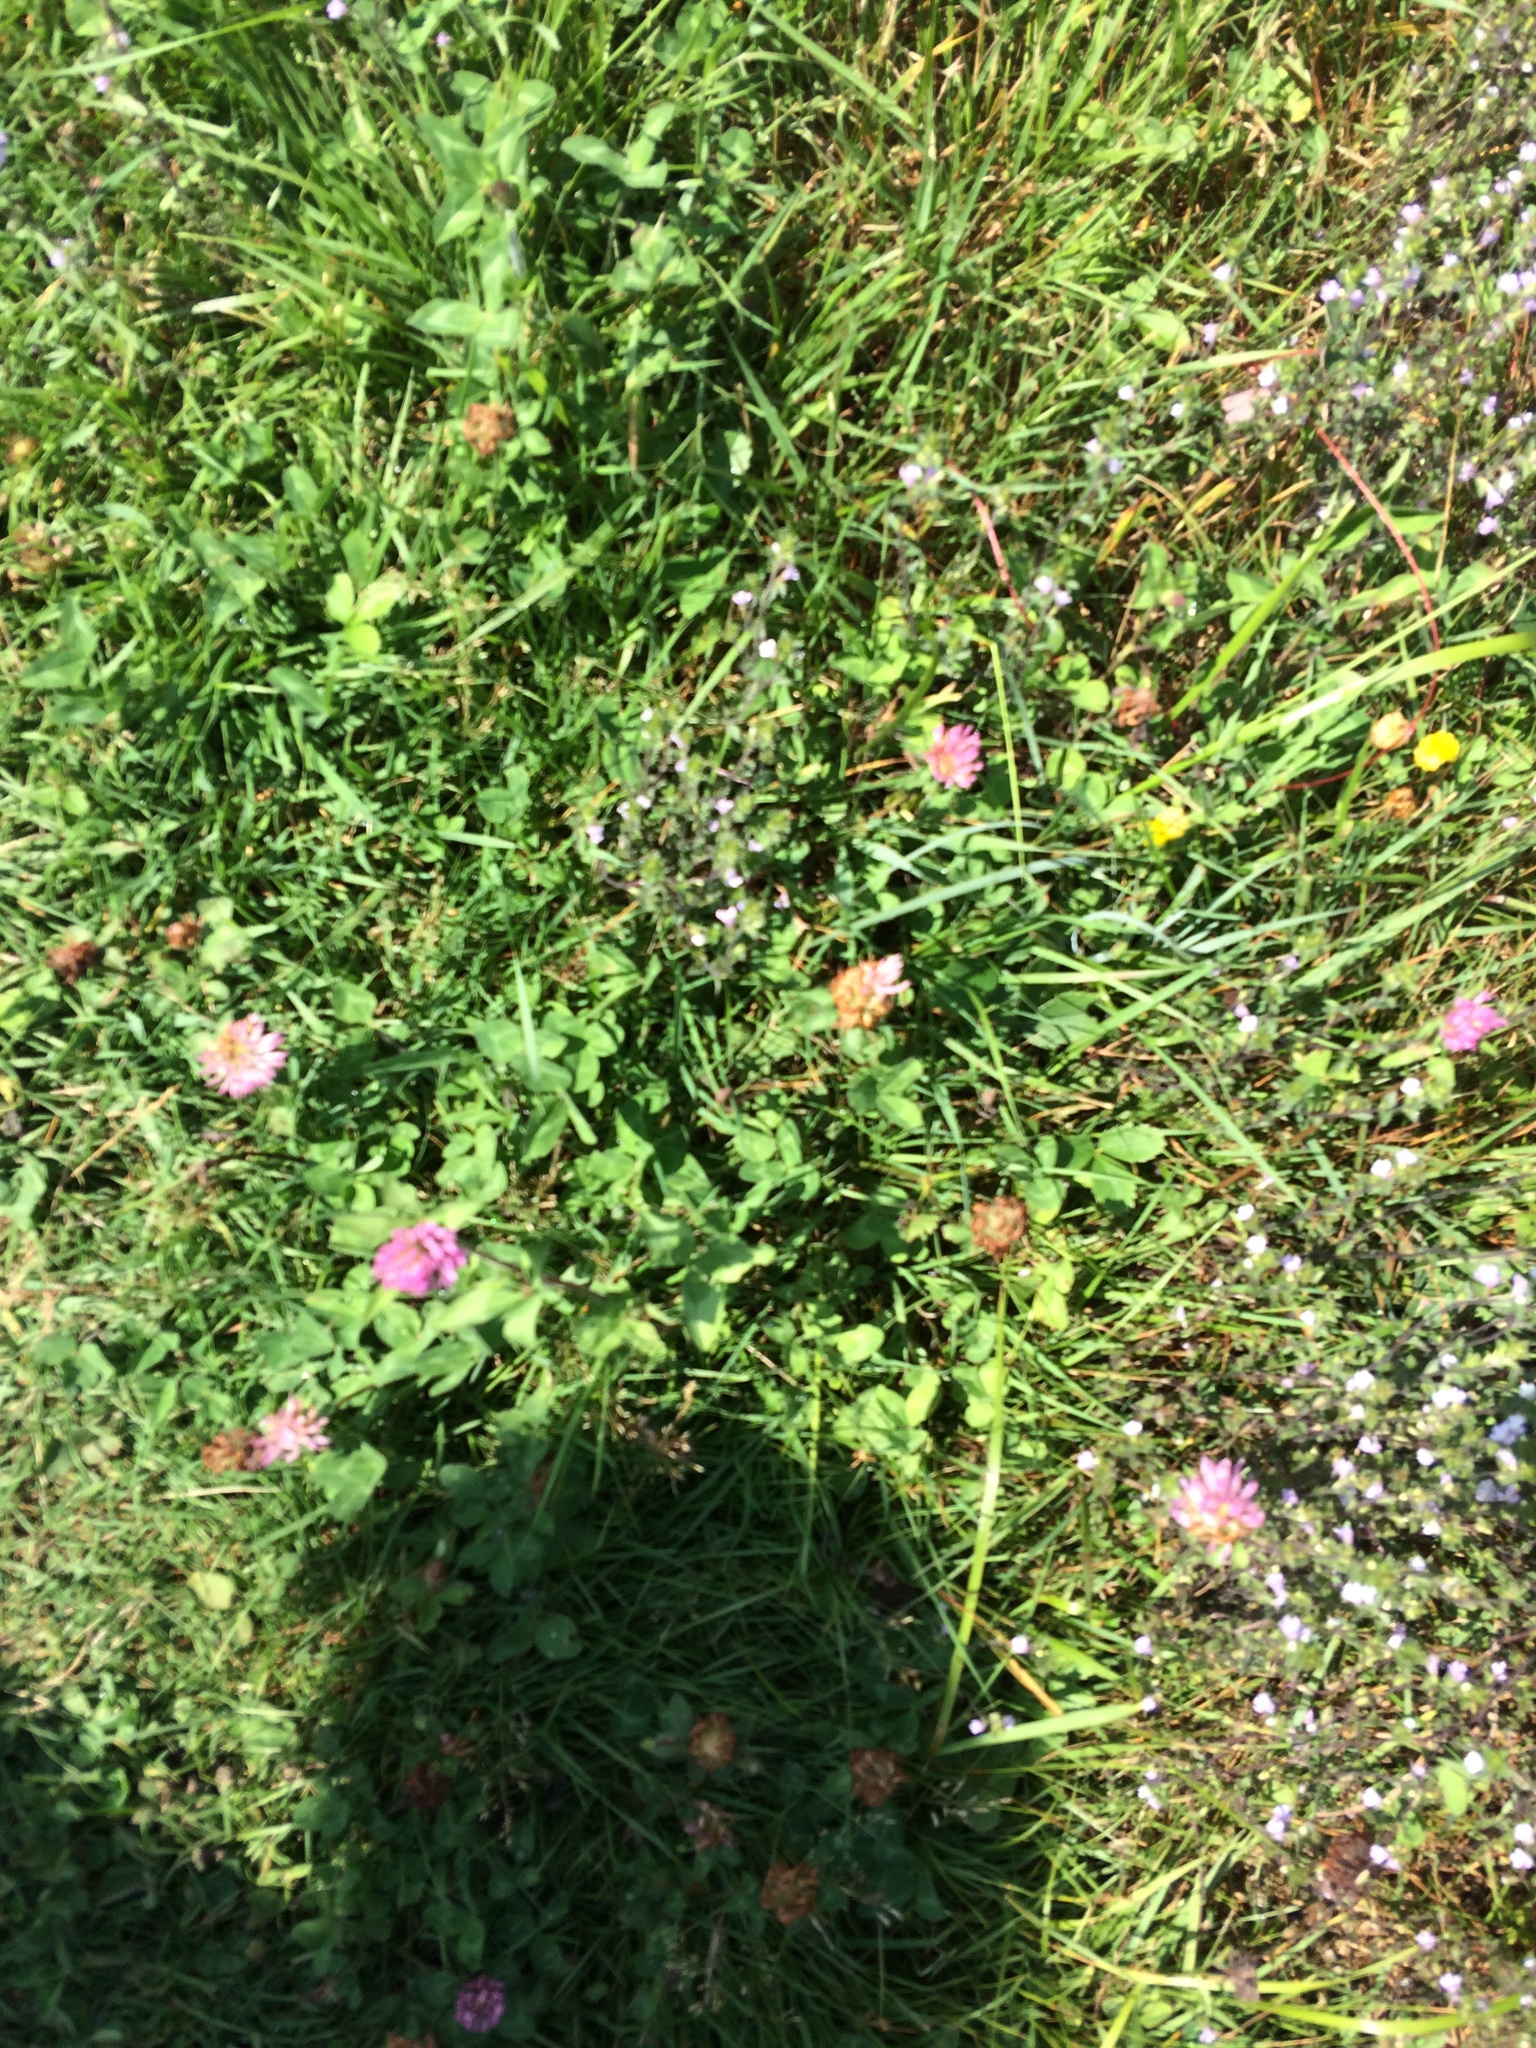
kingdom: Plantae
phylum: Tracheophyta
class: Magnoliopsida
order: Fabales
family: Fabaceae
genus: Trifolium
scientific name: Trifolium pratense
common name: Red clover
